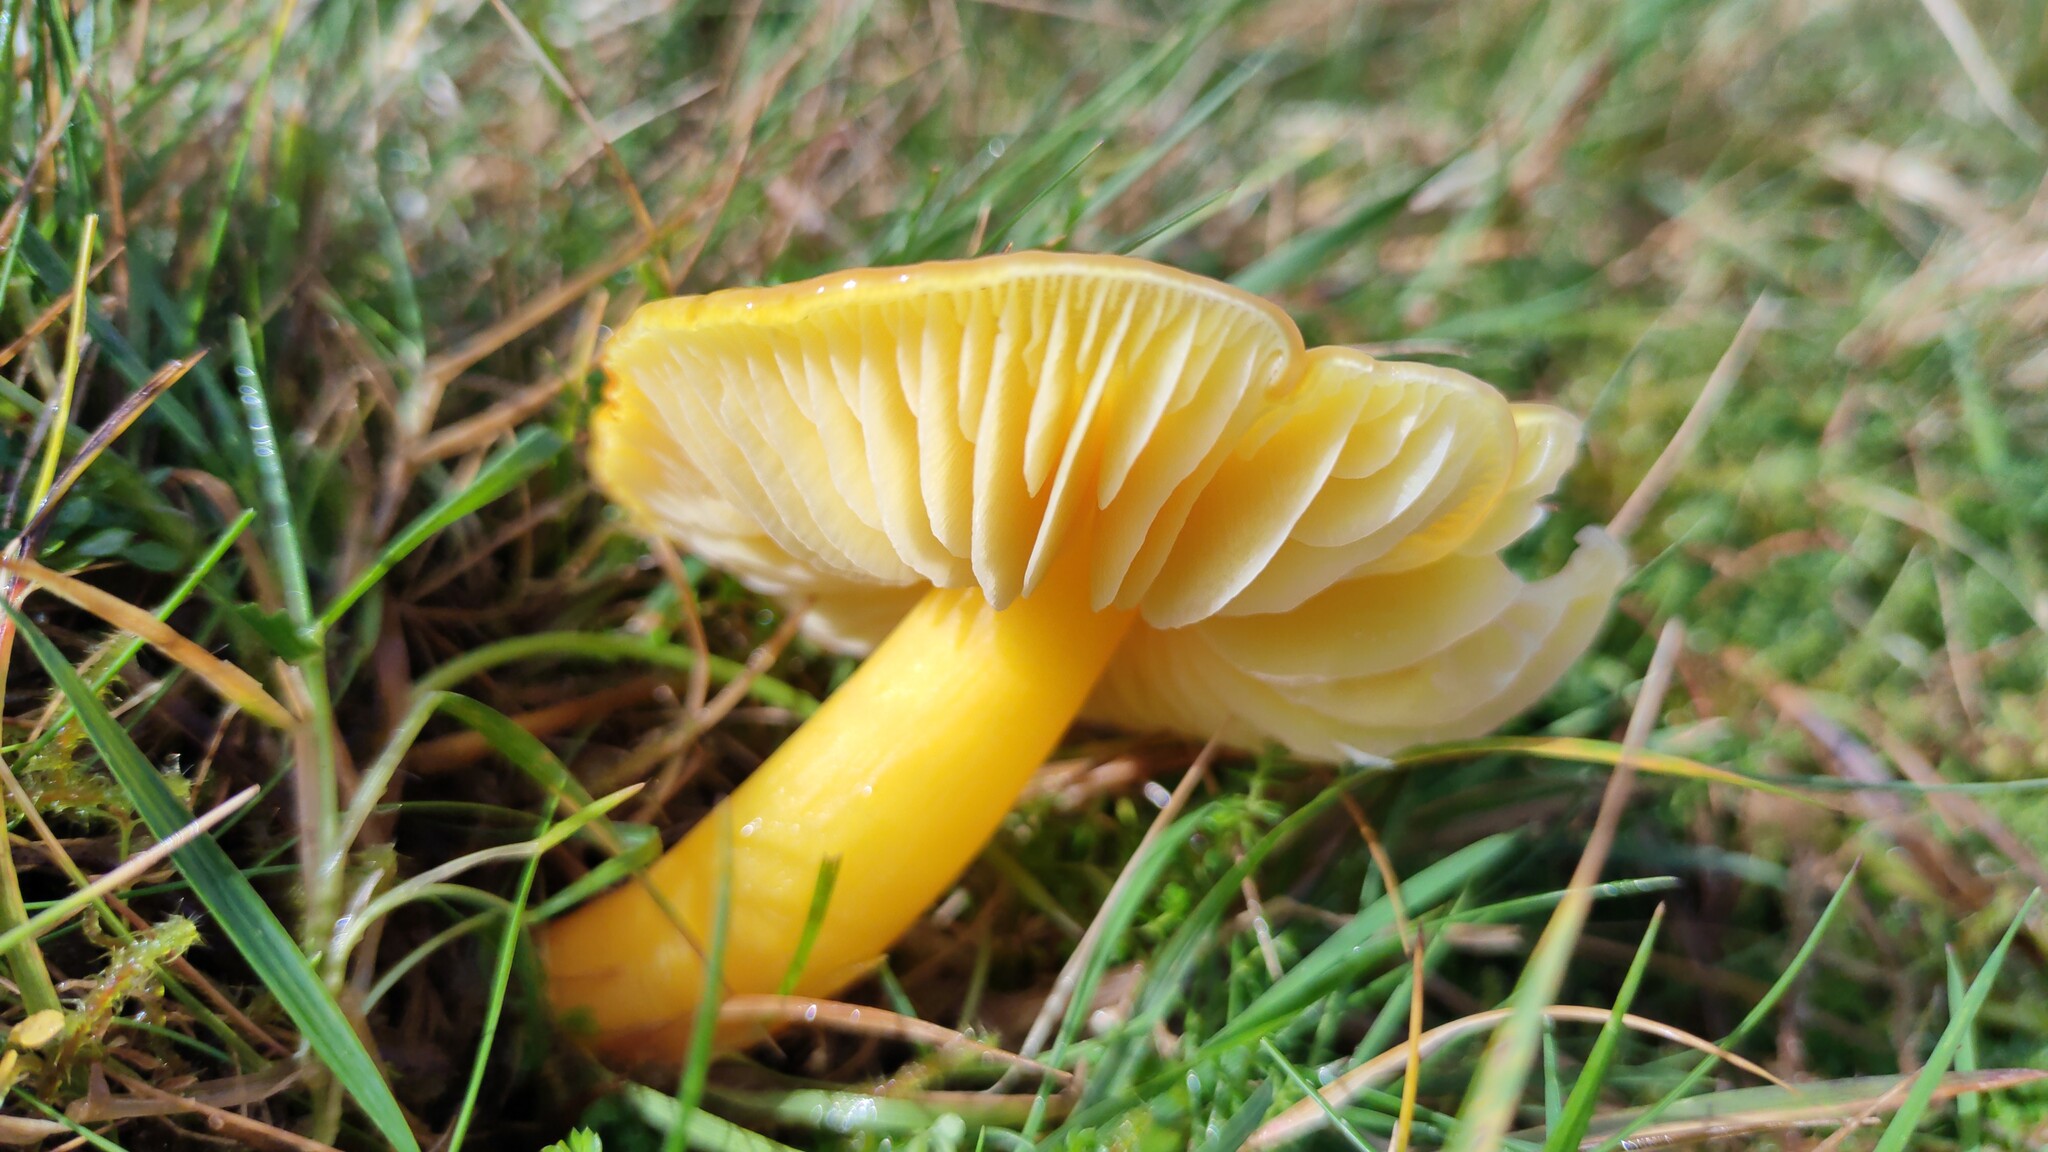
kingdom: Fungi
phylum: Basidiomycota
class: Agaricomycetes
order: Agaricales
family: Hygrophoraceae
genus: Hygrocybe
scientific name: Hygrocybe chlorophana
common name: Golden waxcap
